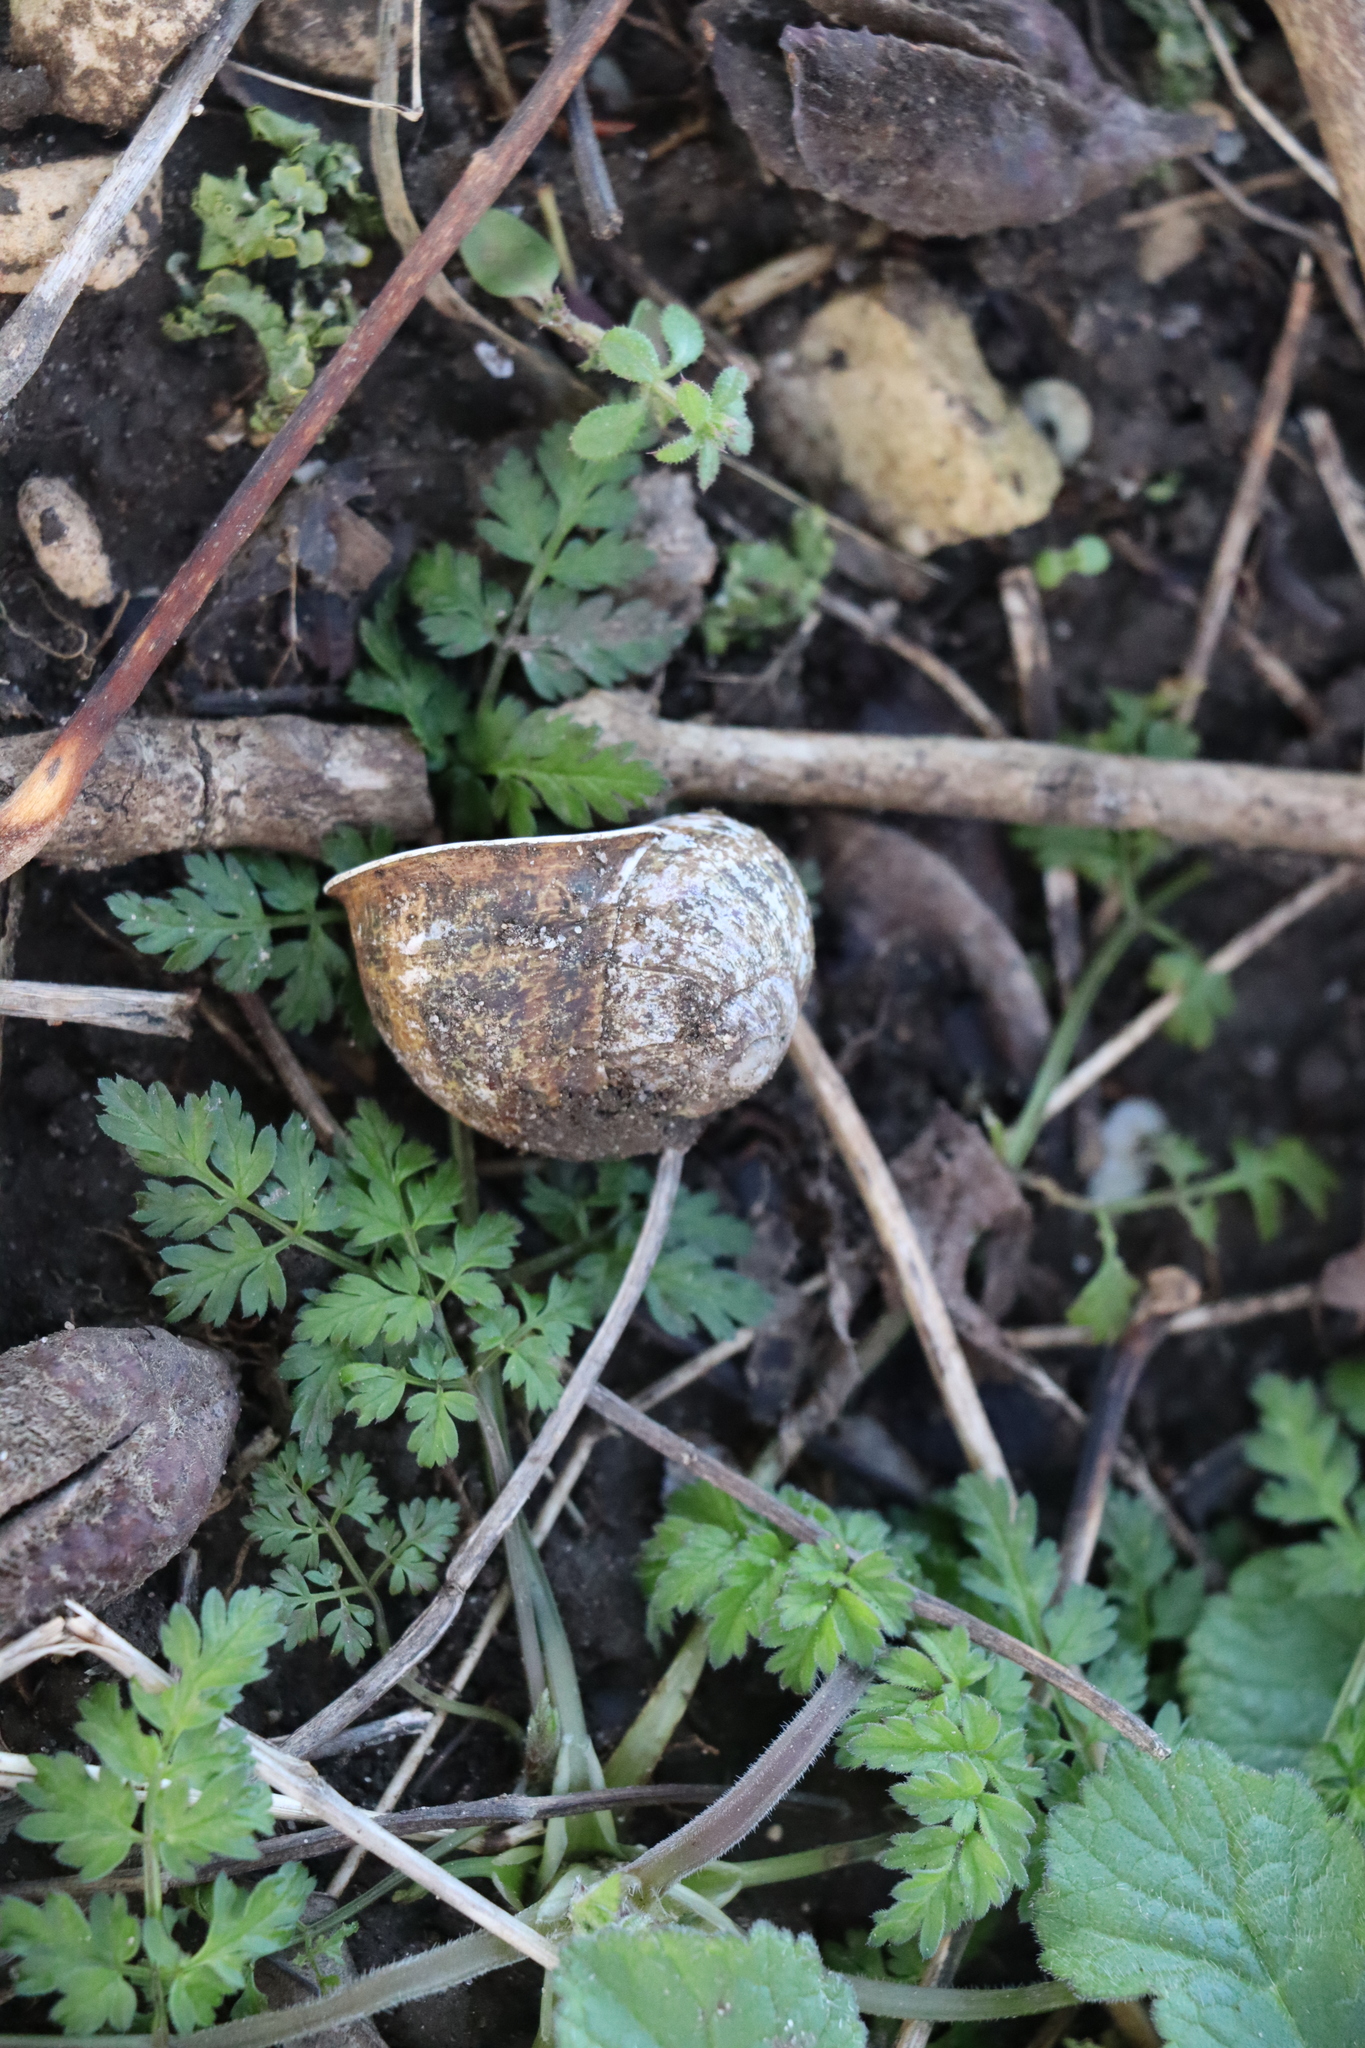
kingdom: Animalia
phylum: Mollusca
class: Gastropoda
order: Stylommatophora
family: Helicidae
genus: Cornu
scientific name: Cornu aspersum
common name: Brown garden snail
